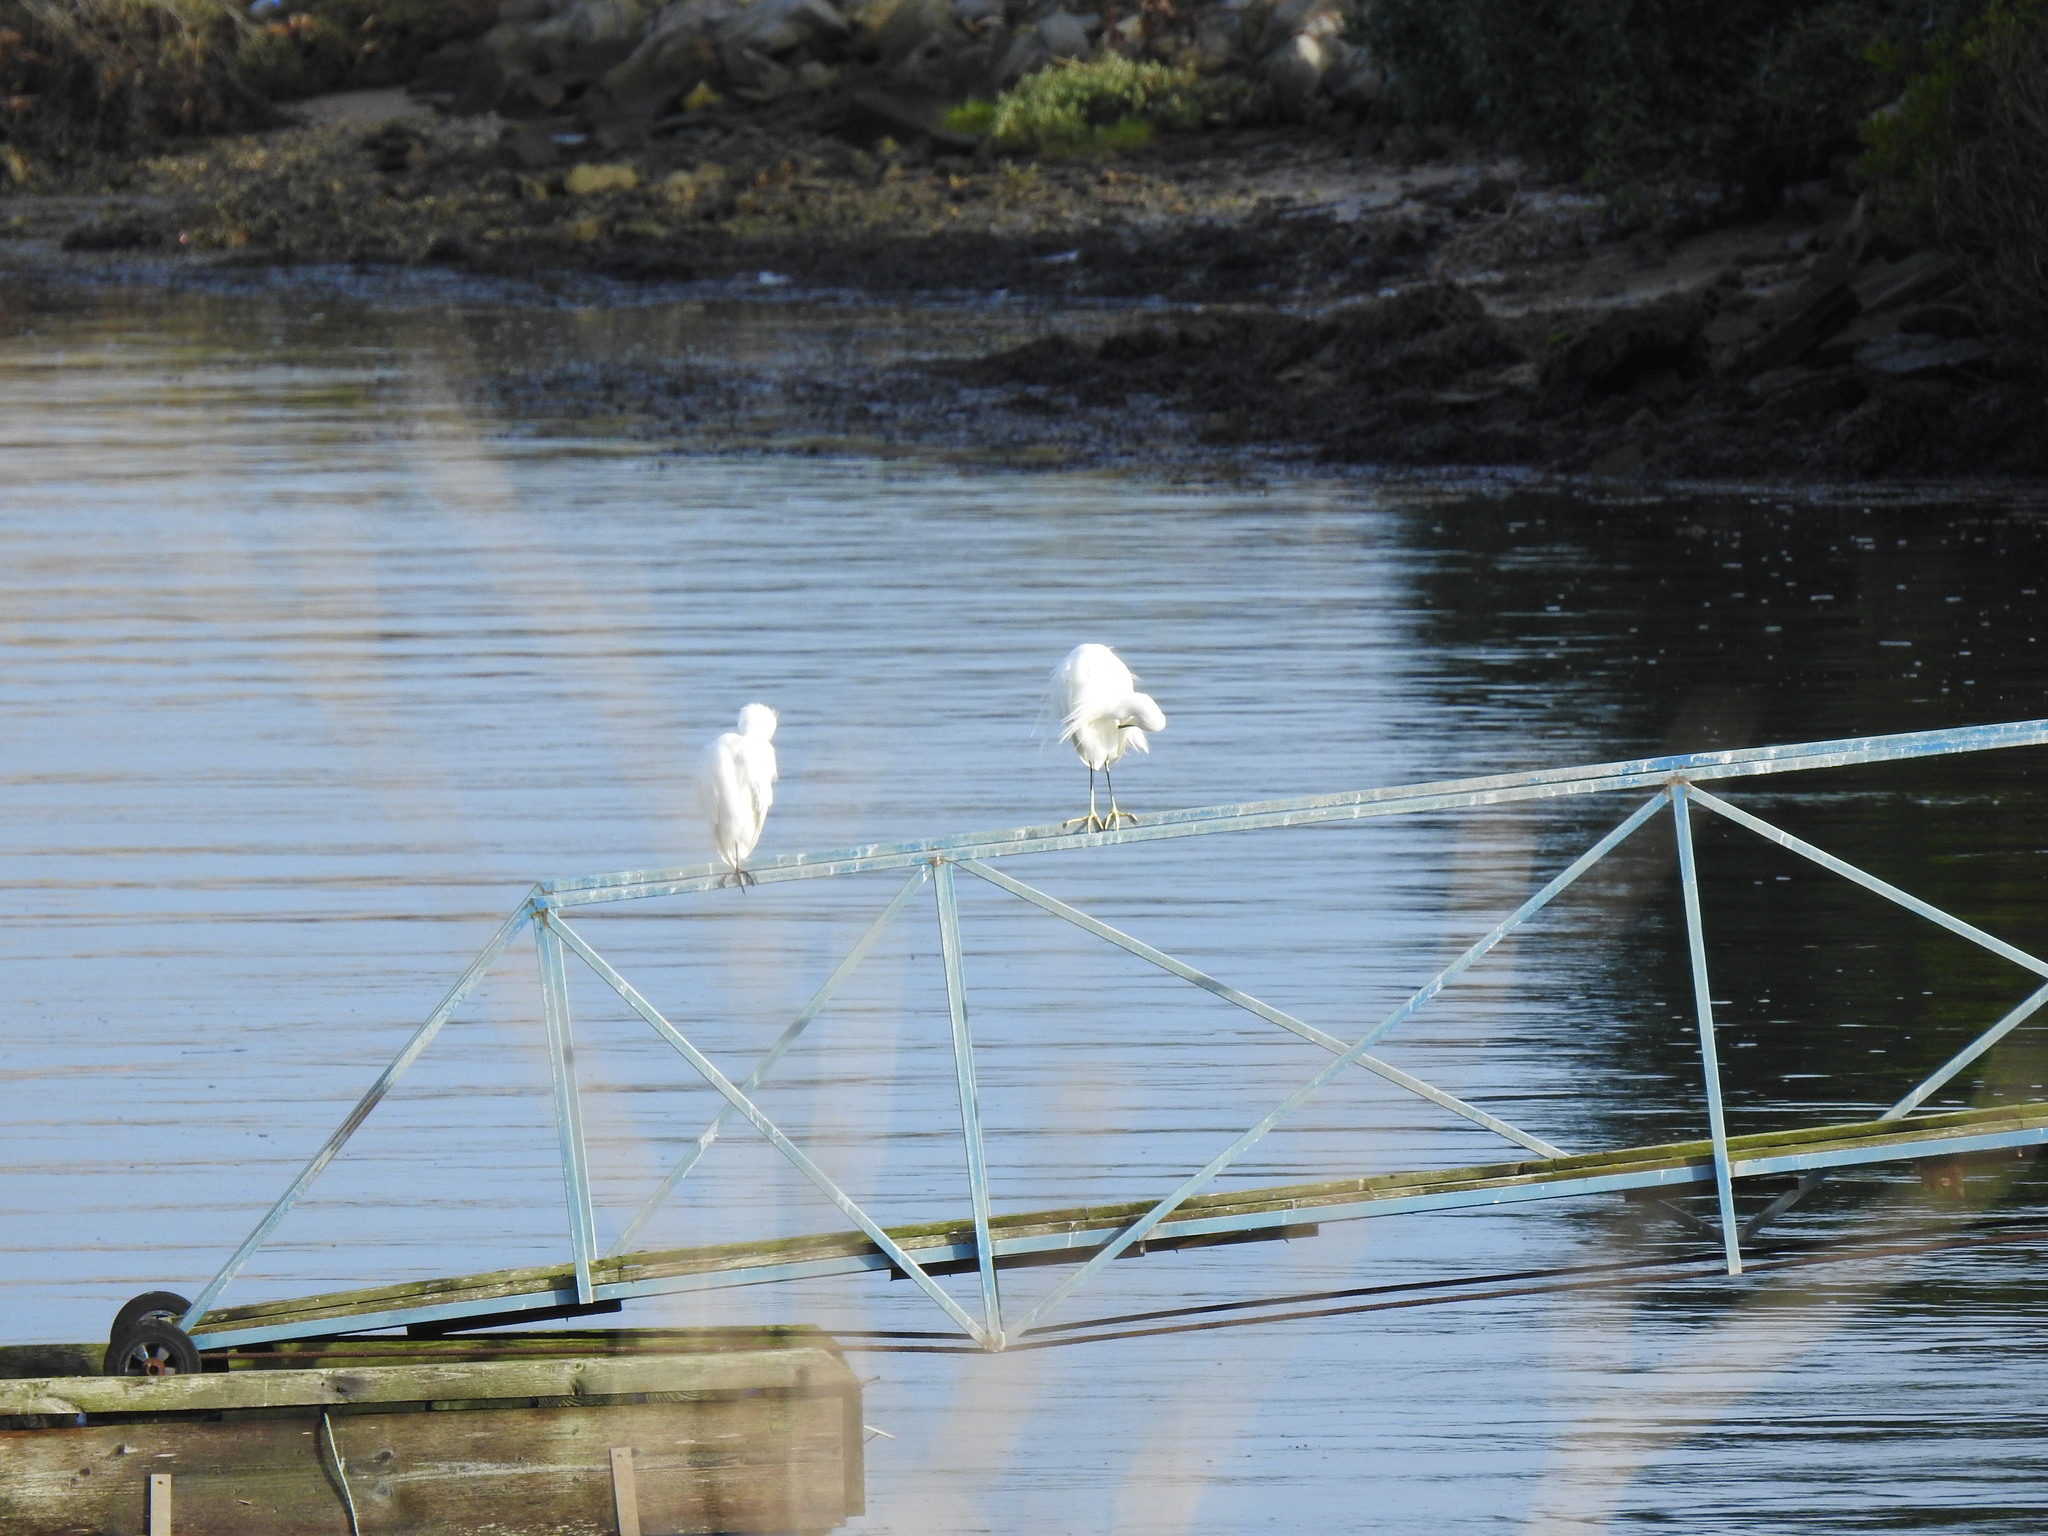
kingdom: Animalia
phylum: Chordata
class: Aves
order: Pelecaniformes
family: Ardeidae
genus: Egretta
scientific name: Egretta garzetta
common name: Little egret
